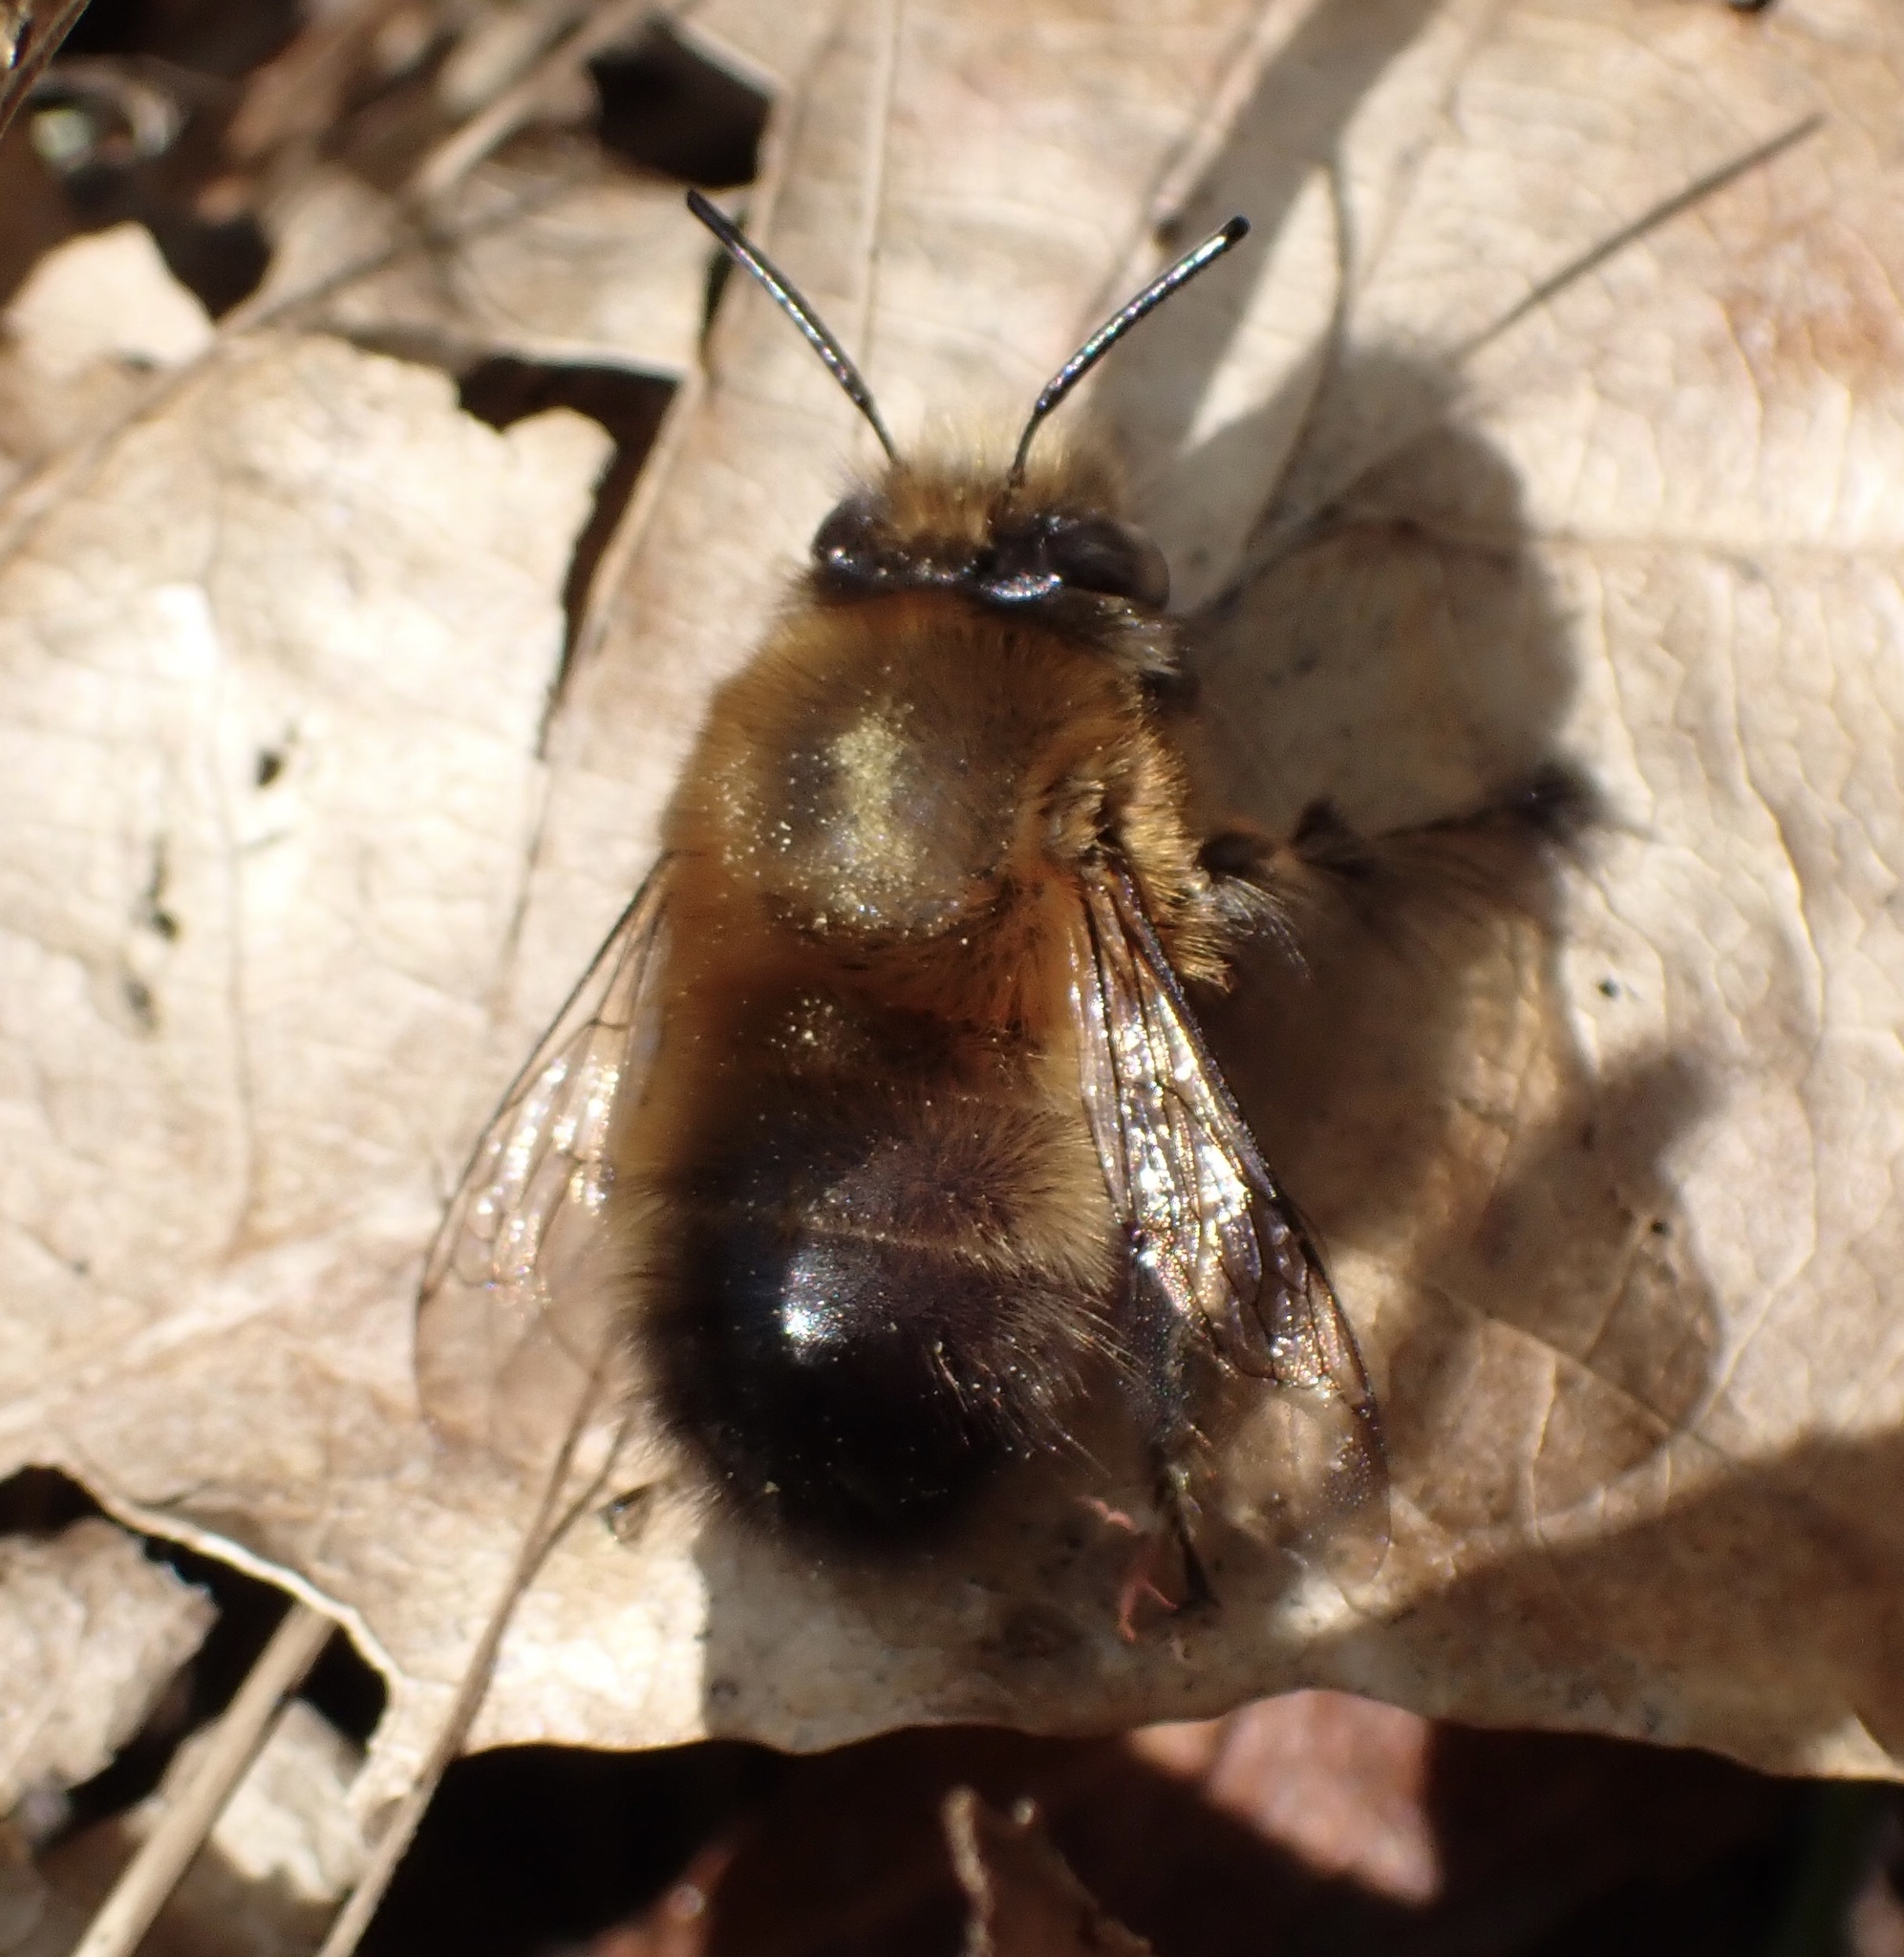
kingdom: Animalia
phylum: Arthropoda
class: Insecta
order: Hymenoptera
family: Apidae
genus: Anthophora
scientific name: Anthophora plumipes
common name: Hairy-footed flower bee
